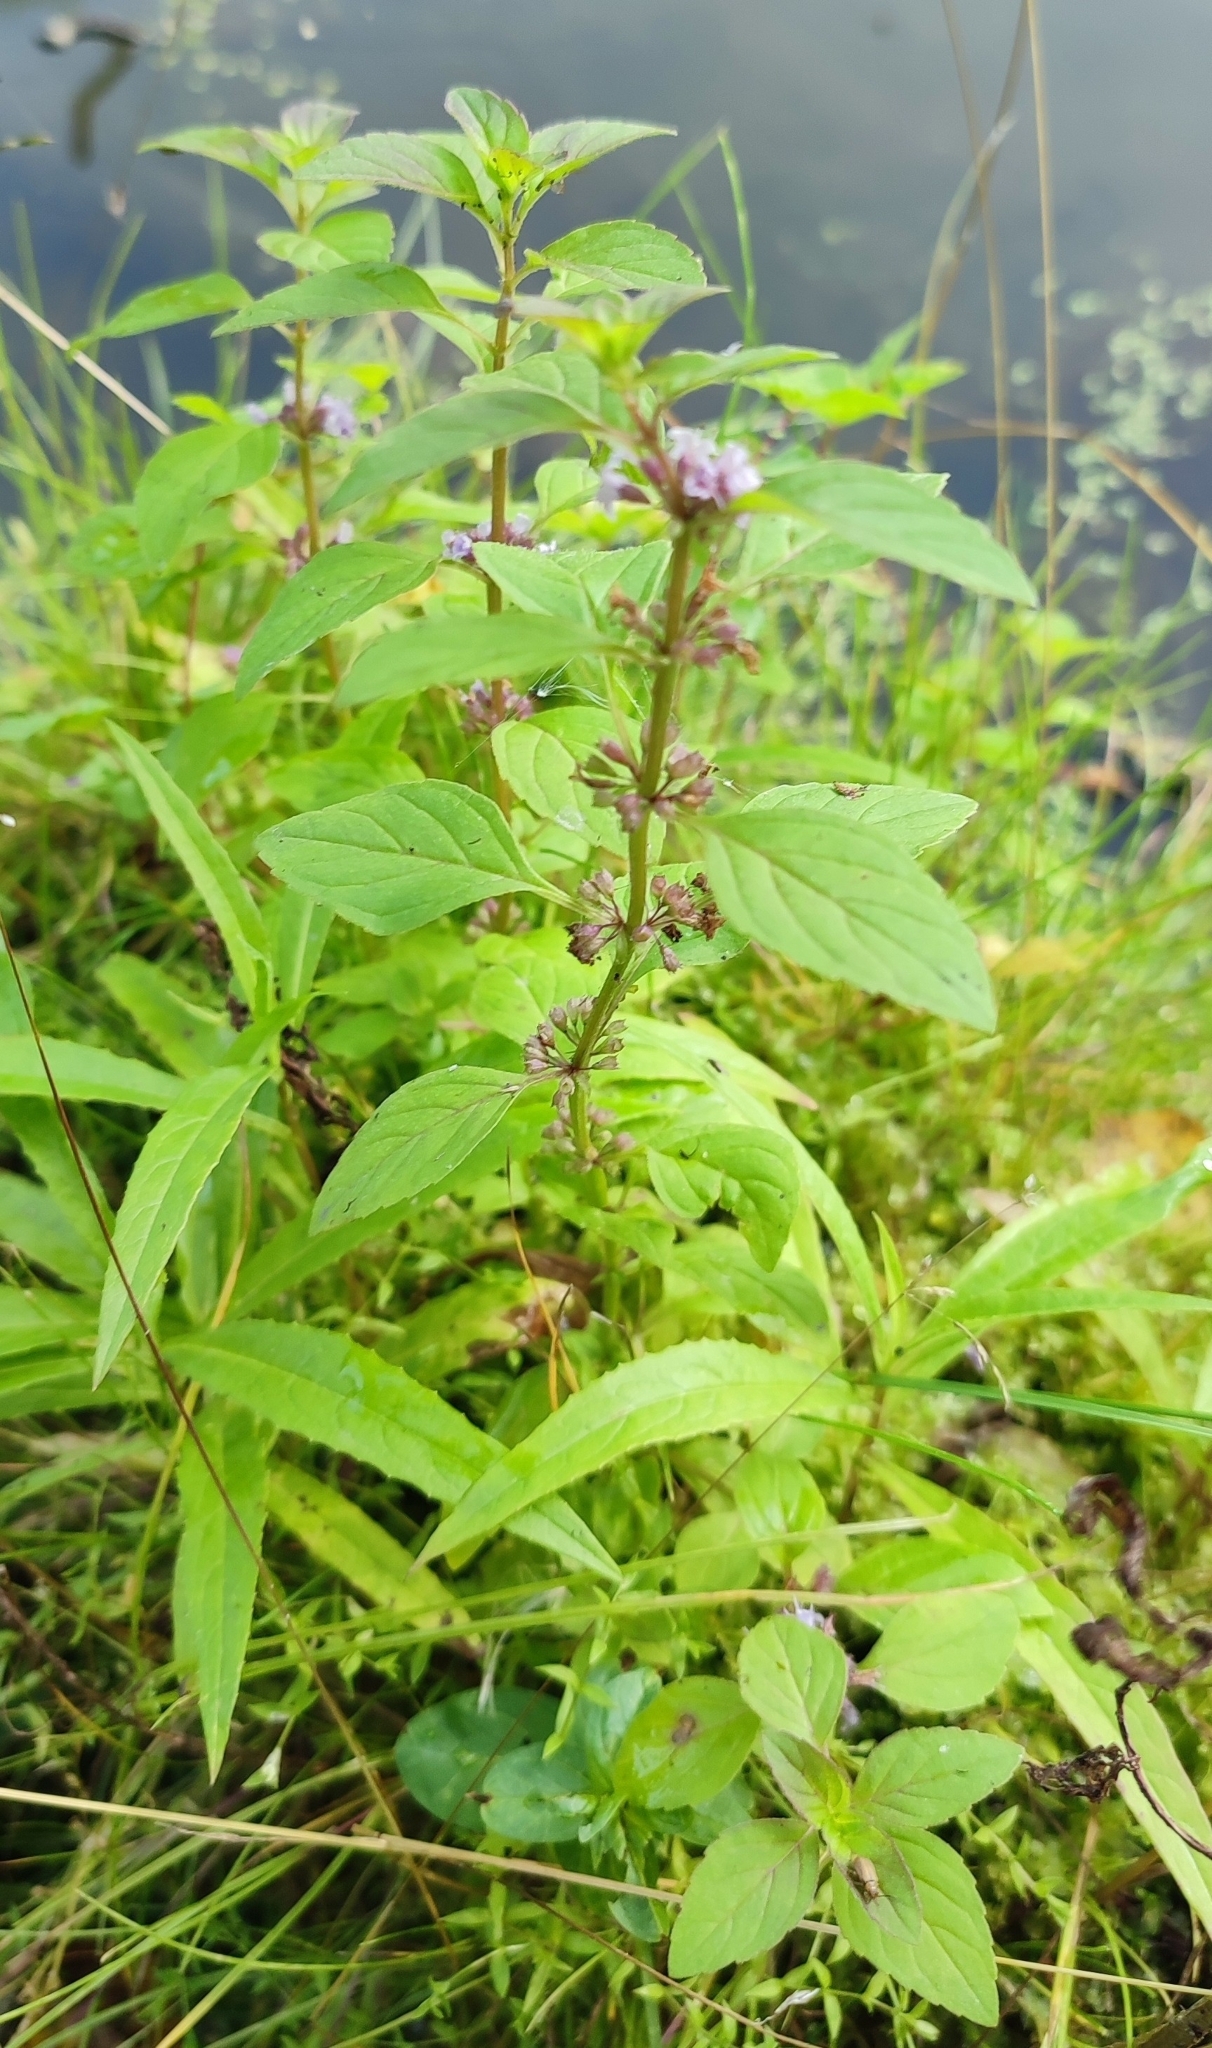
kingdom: Plantae
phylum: Tracheophyta
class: Magnoliopsida
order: Lamiales
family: Lamiaceae
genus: Mentha
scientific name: Mentha arvensis
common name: Corn mint
